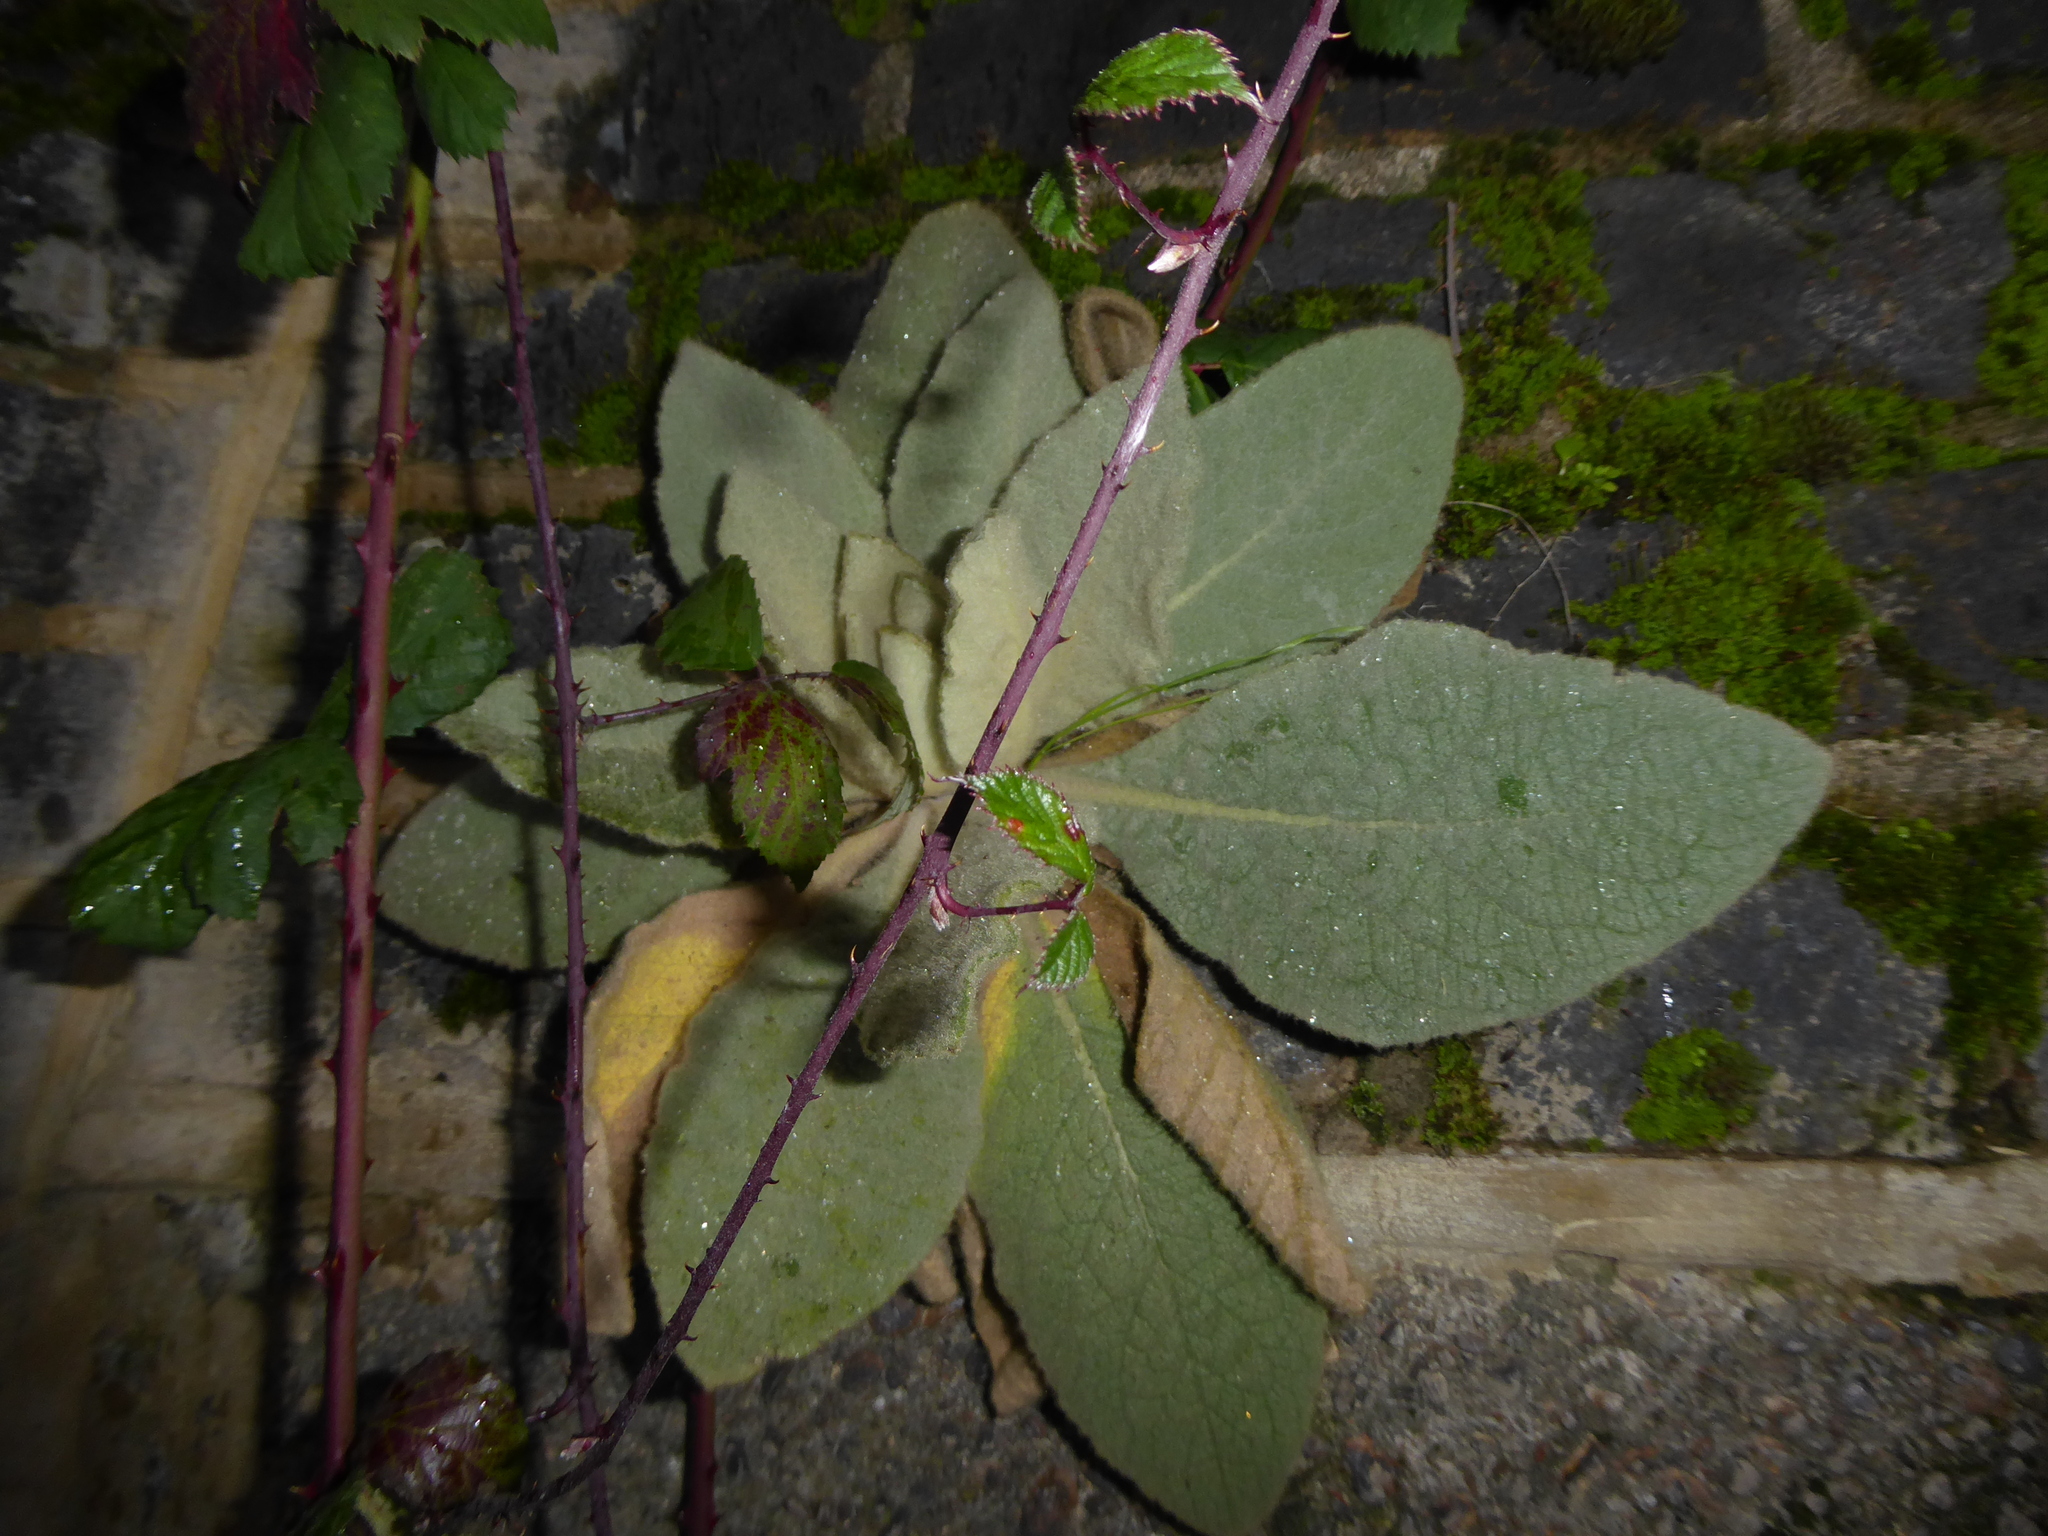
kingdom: Plantae
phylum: Tracheophyta
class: Magnoliopsida
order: Lamiales
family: Scrophulariaceae
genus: Verbascum
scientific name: Verbascum thapsus
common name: Common mullein
